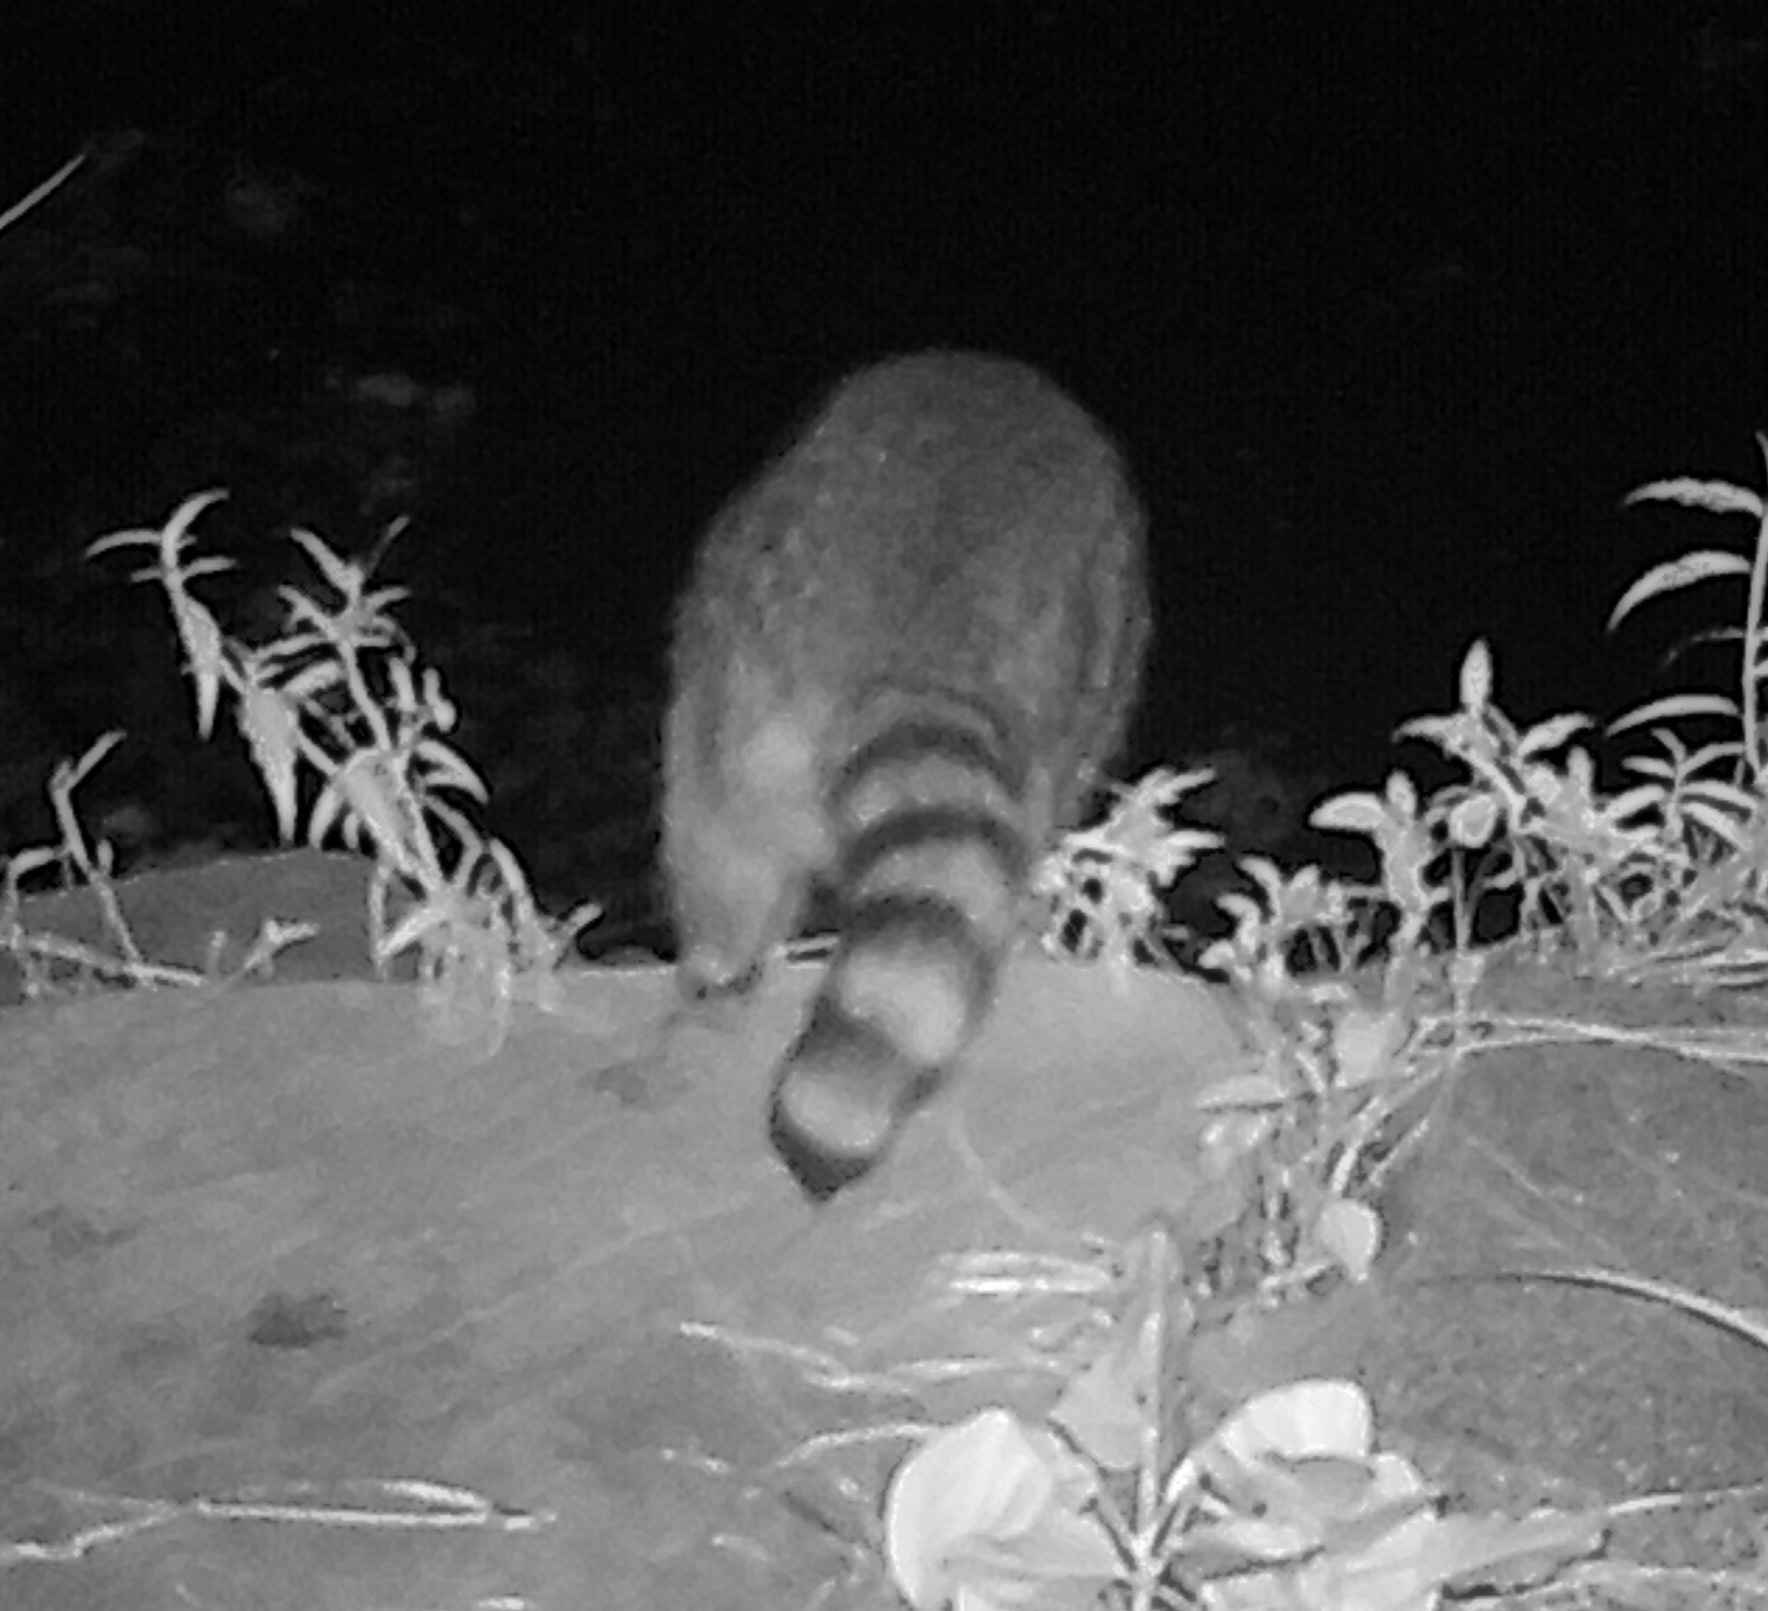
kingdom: Animalia
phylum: Chordata
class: Mammalia
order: Carnivora
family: Procyonidae
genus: Procyon
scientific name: Procyon lotor
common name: Raccoon
